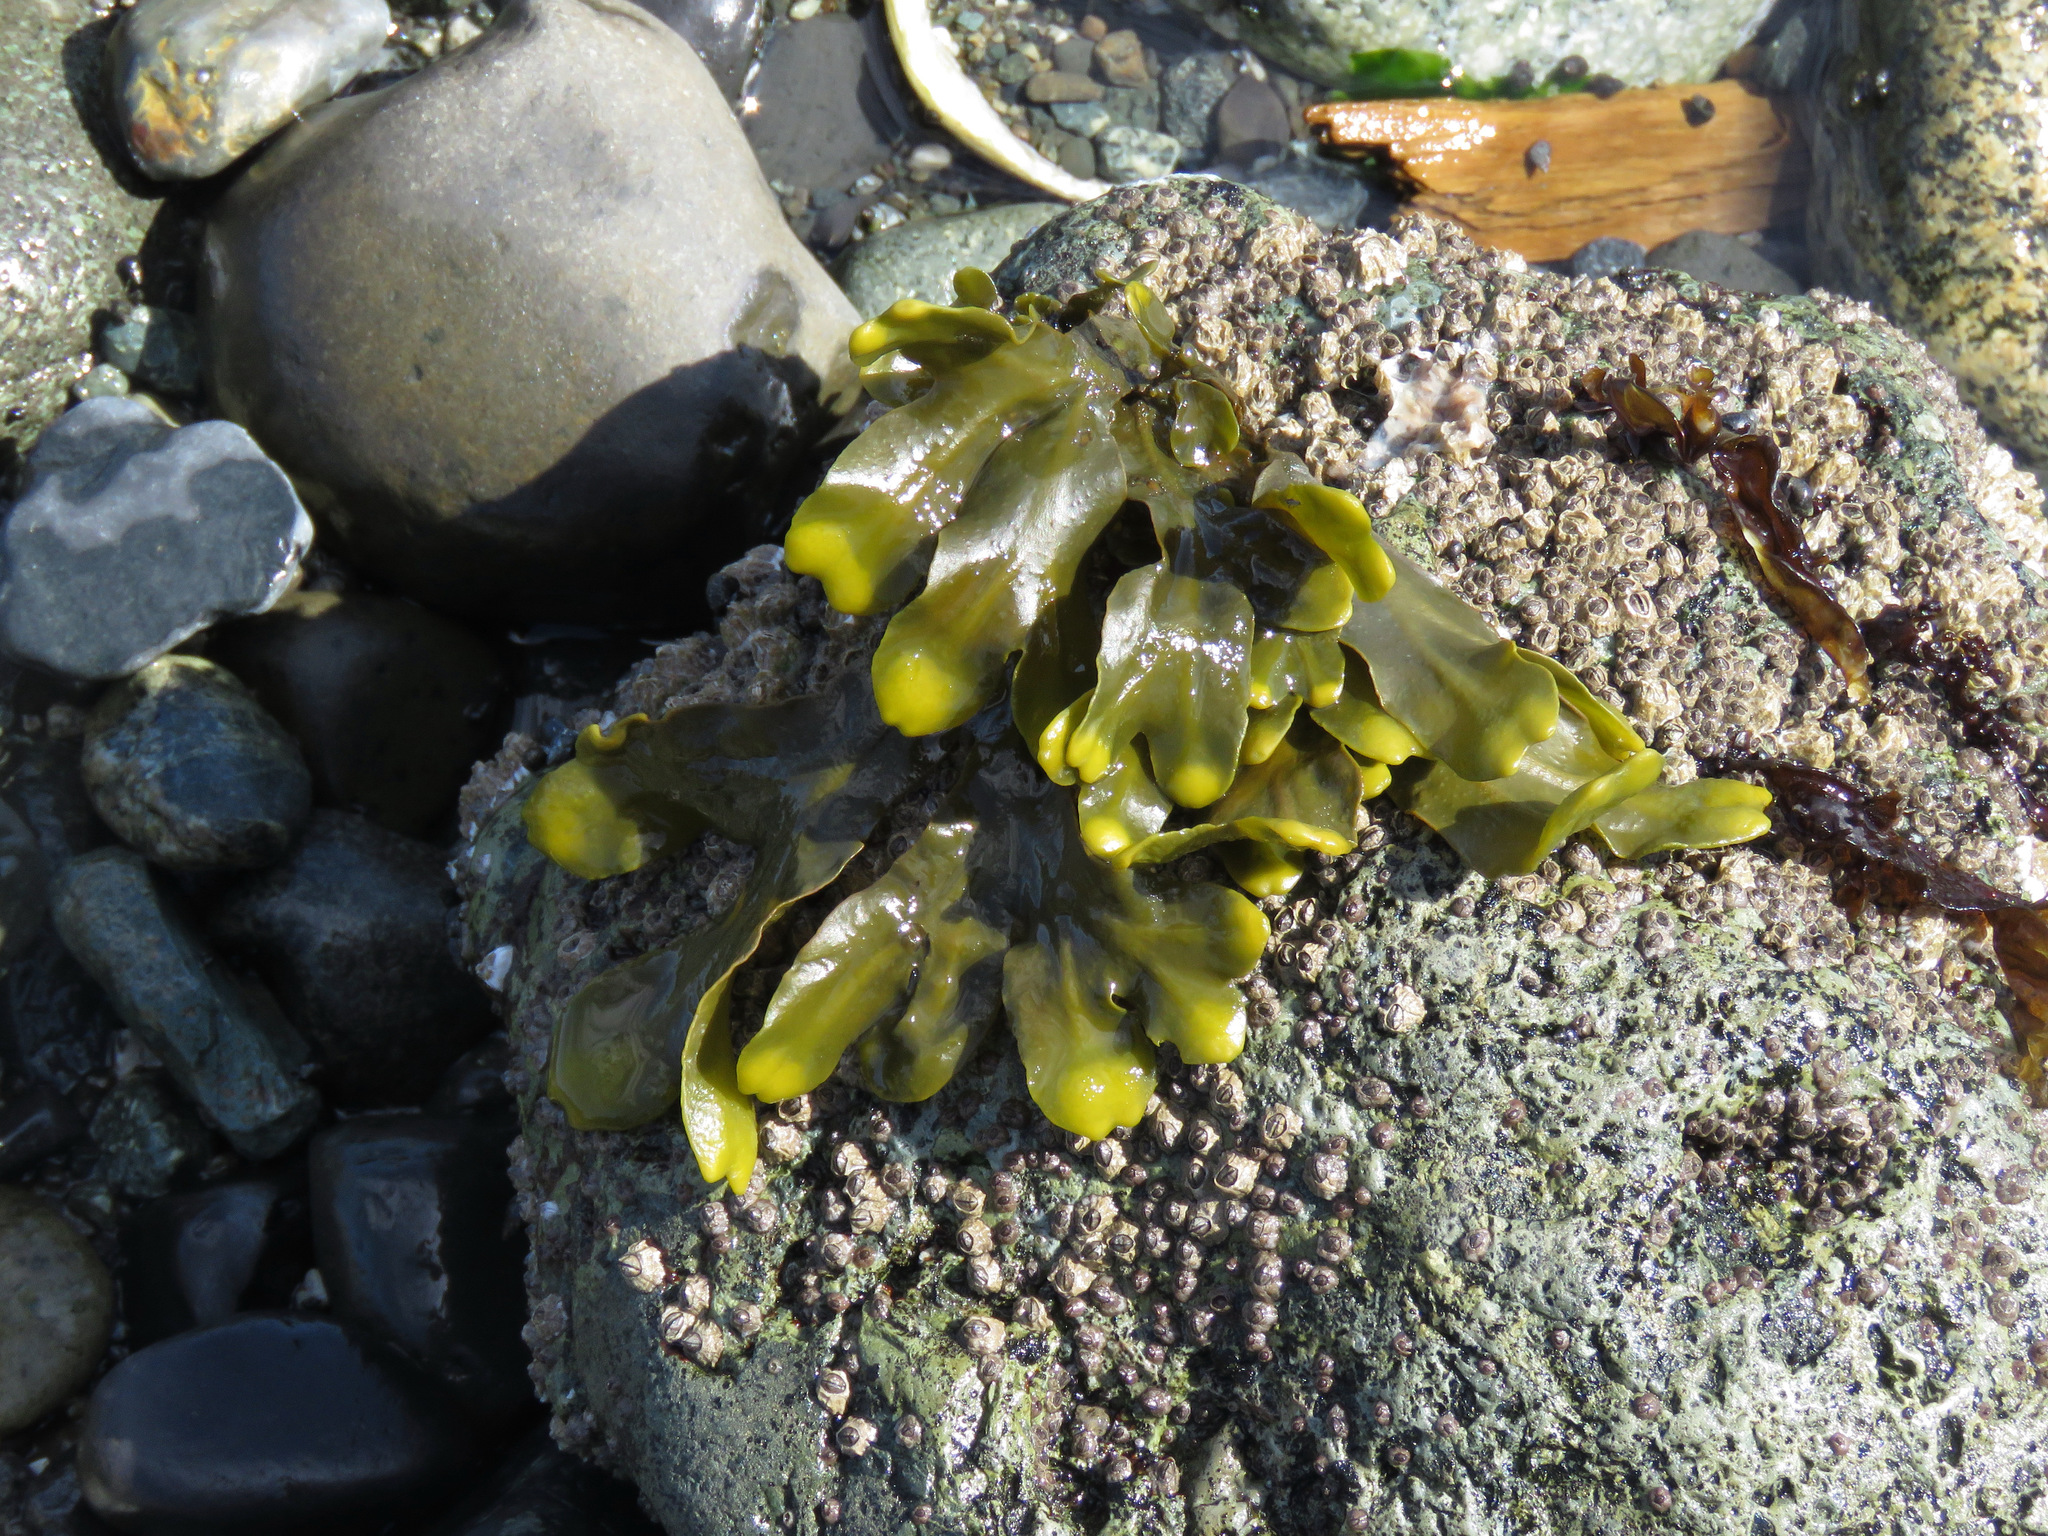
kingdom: Chromista
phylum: Ochrophyta
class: Phaeophyceae
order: Fucales
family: Fucaceae
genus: Fucus
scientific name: Fucus distichus
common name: Rockweed
